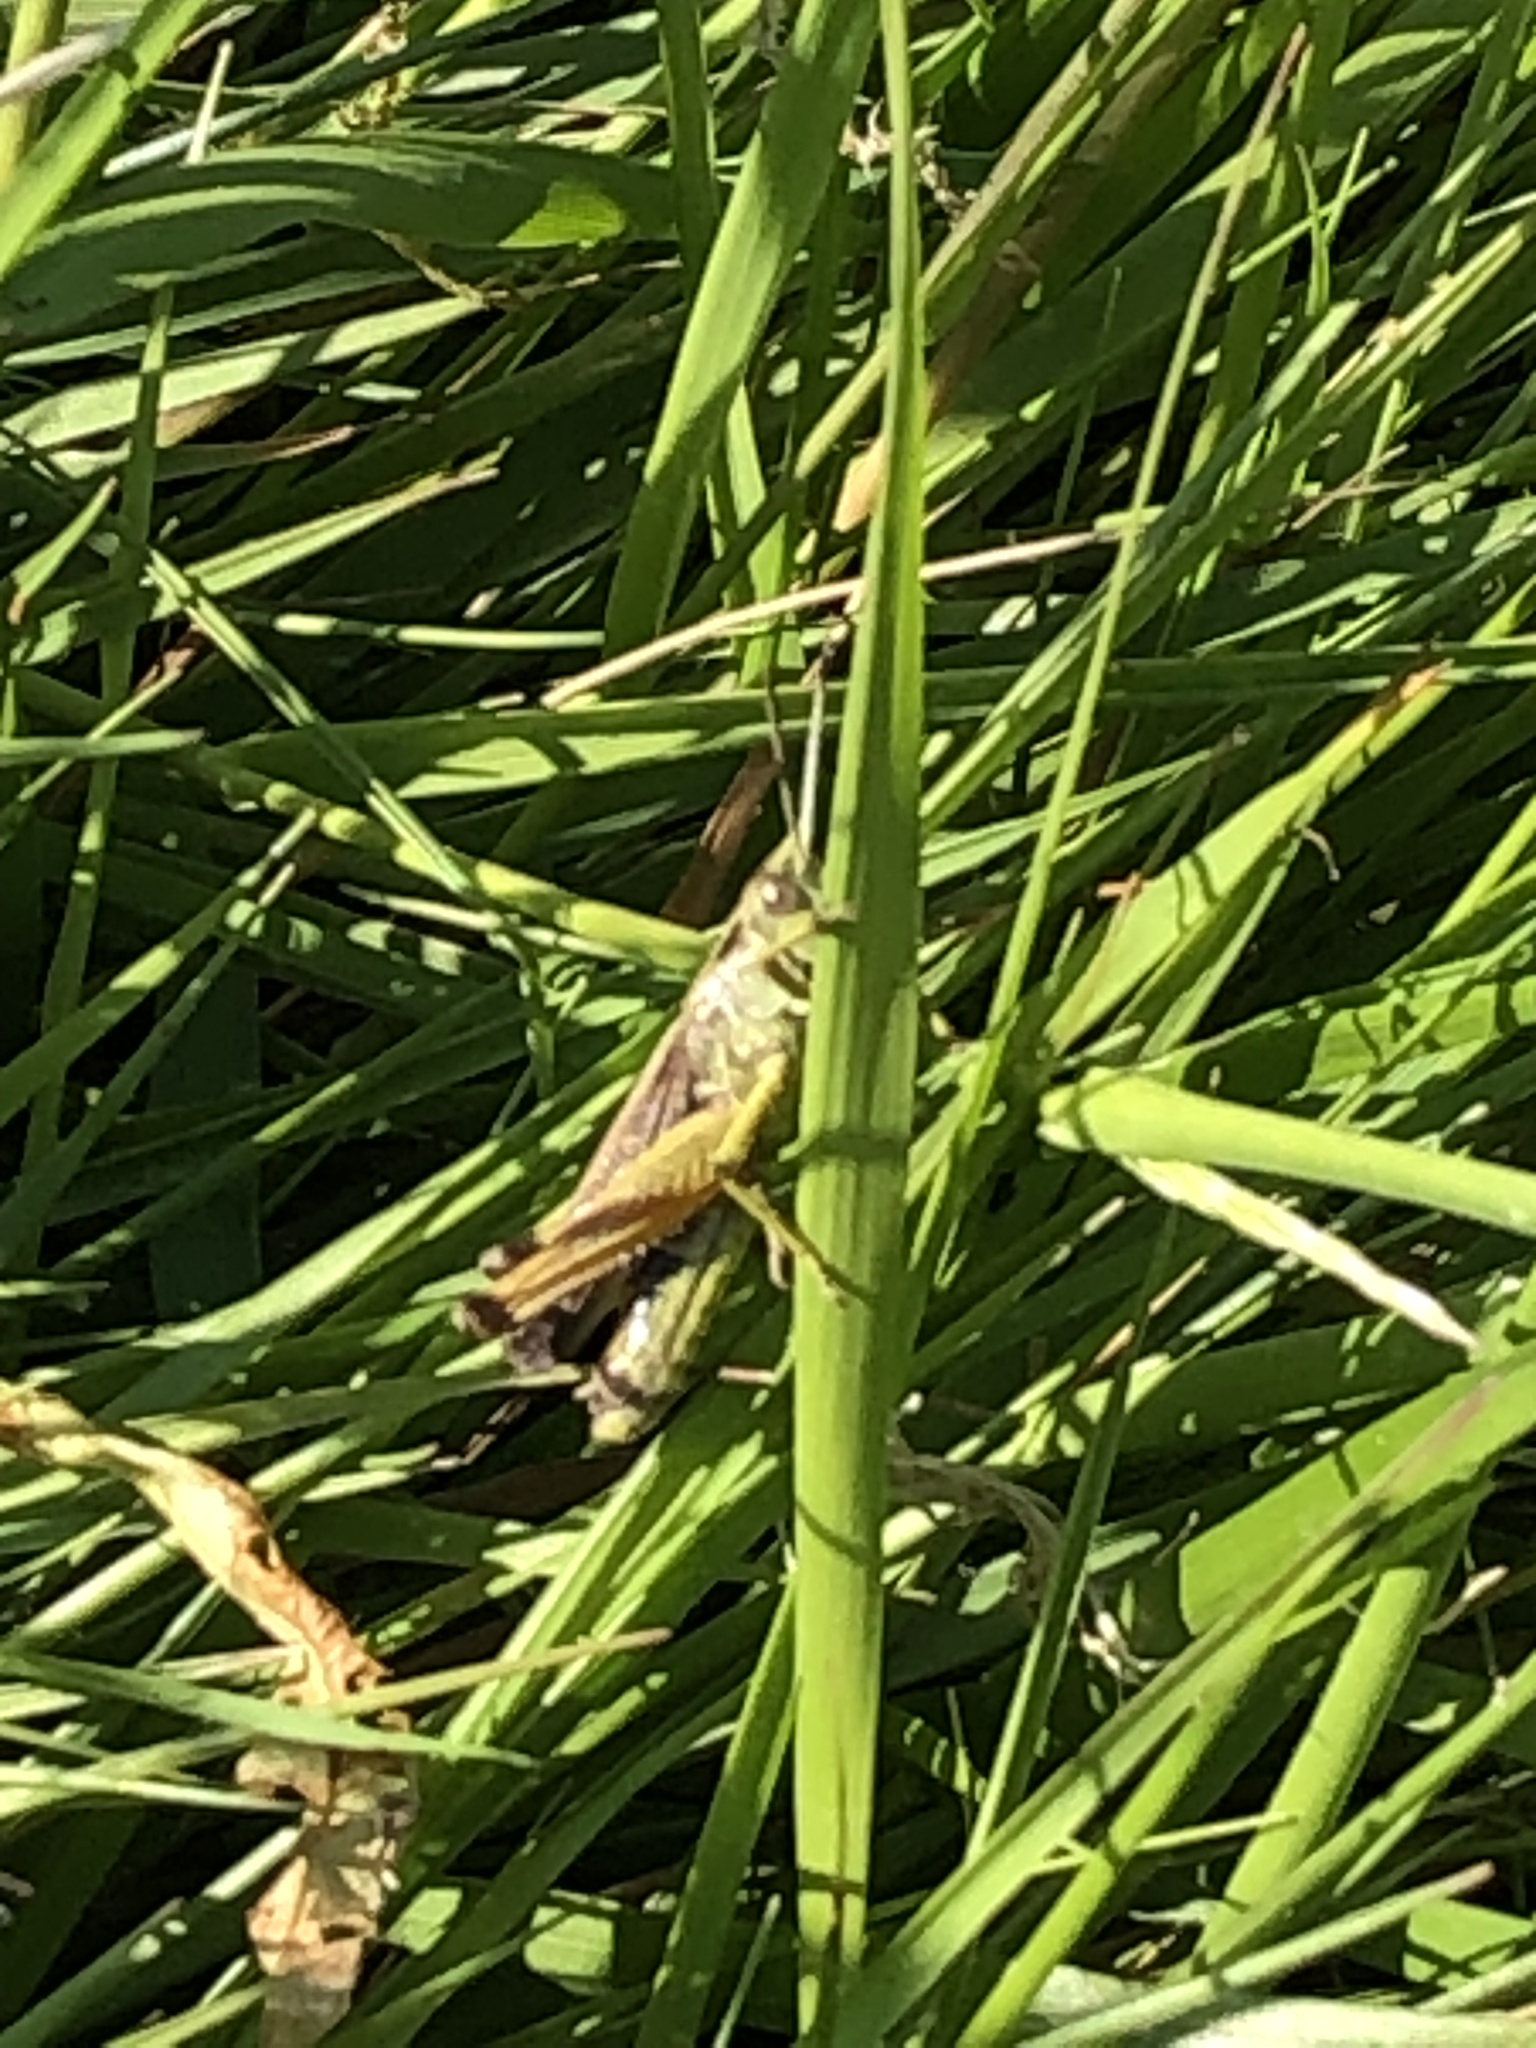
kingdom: Animalia
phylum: Arthropoda
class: Insecta
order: Orthoptera
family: Acrididae
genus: Omocestus
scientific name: Omocestus viridulus
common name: Common green grasshopper
